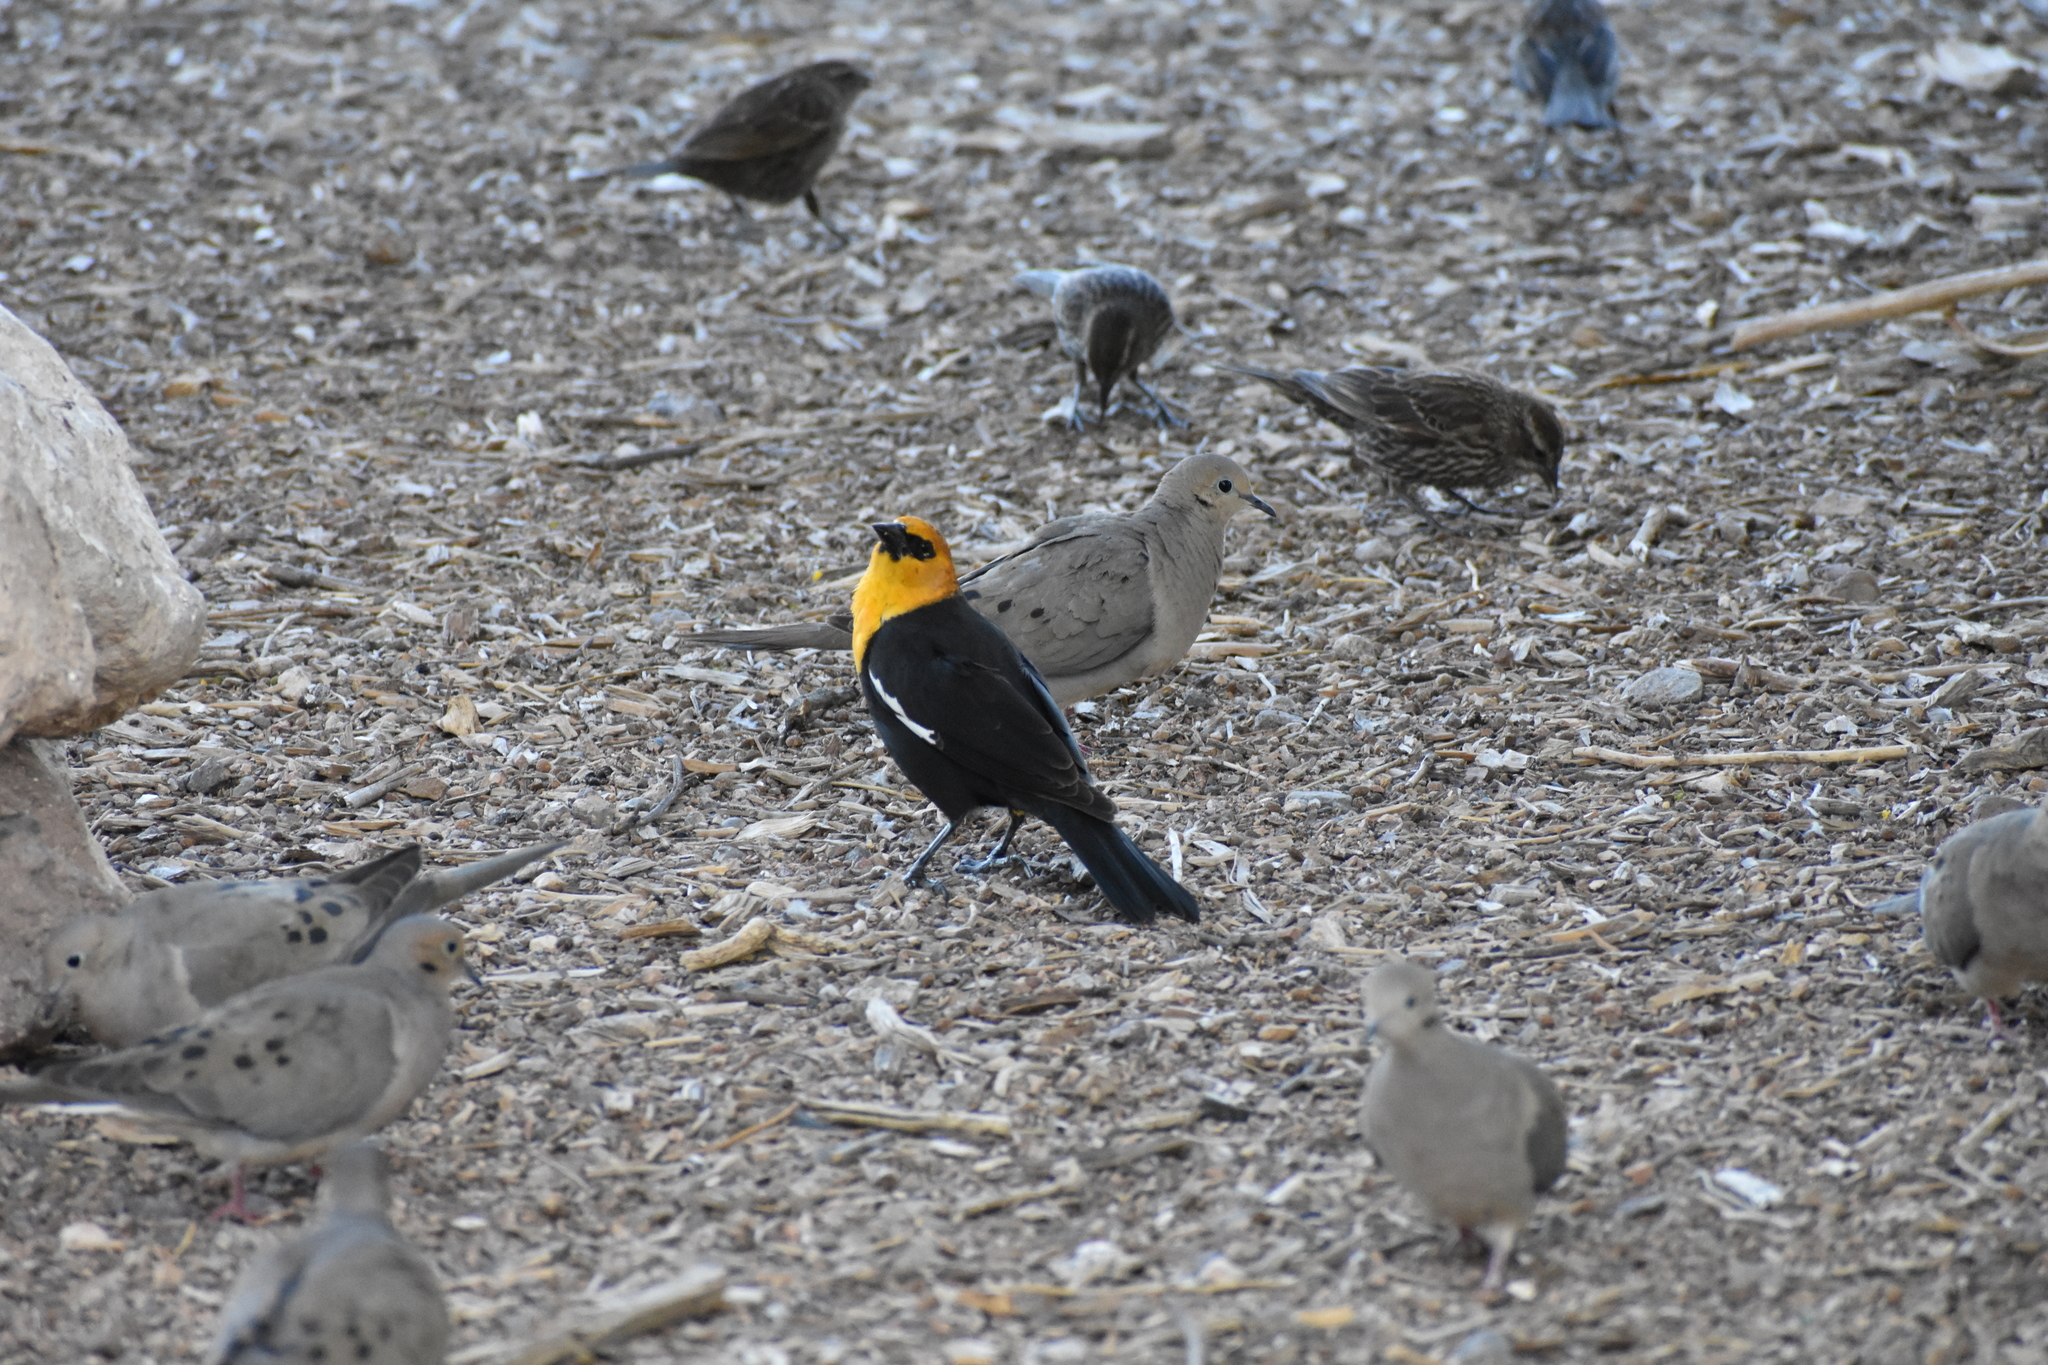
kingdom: Animalia
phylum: Chordata
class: Aves
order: Passeriformes
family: Icteridae
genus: Xanthocephalus
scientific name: Xanthocephalus xanthocephalus
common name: Yellow-headed blackbird
